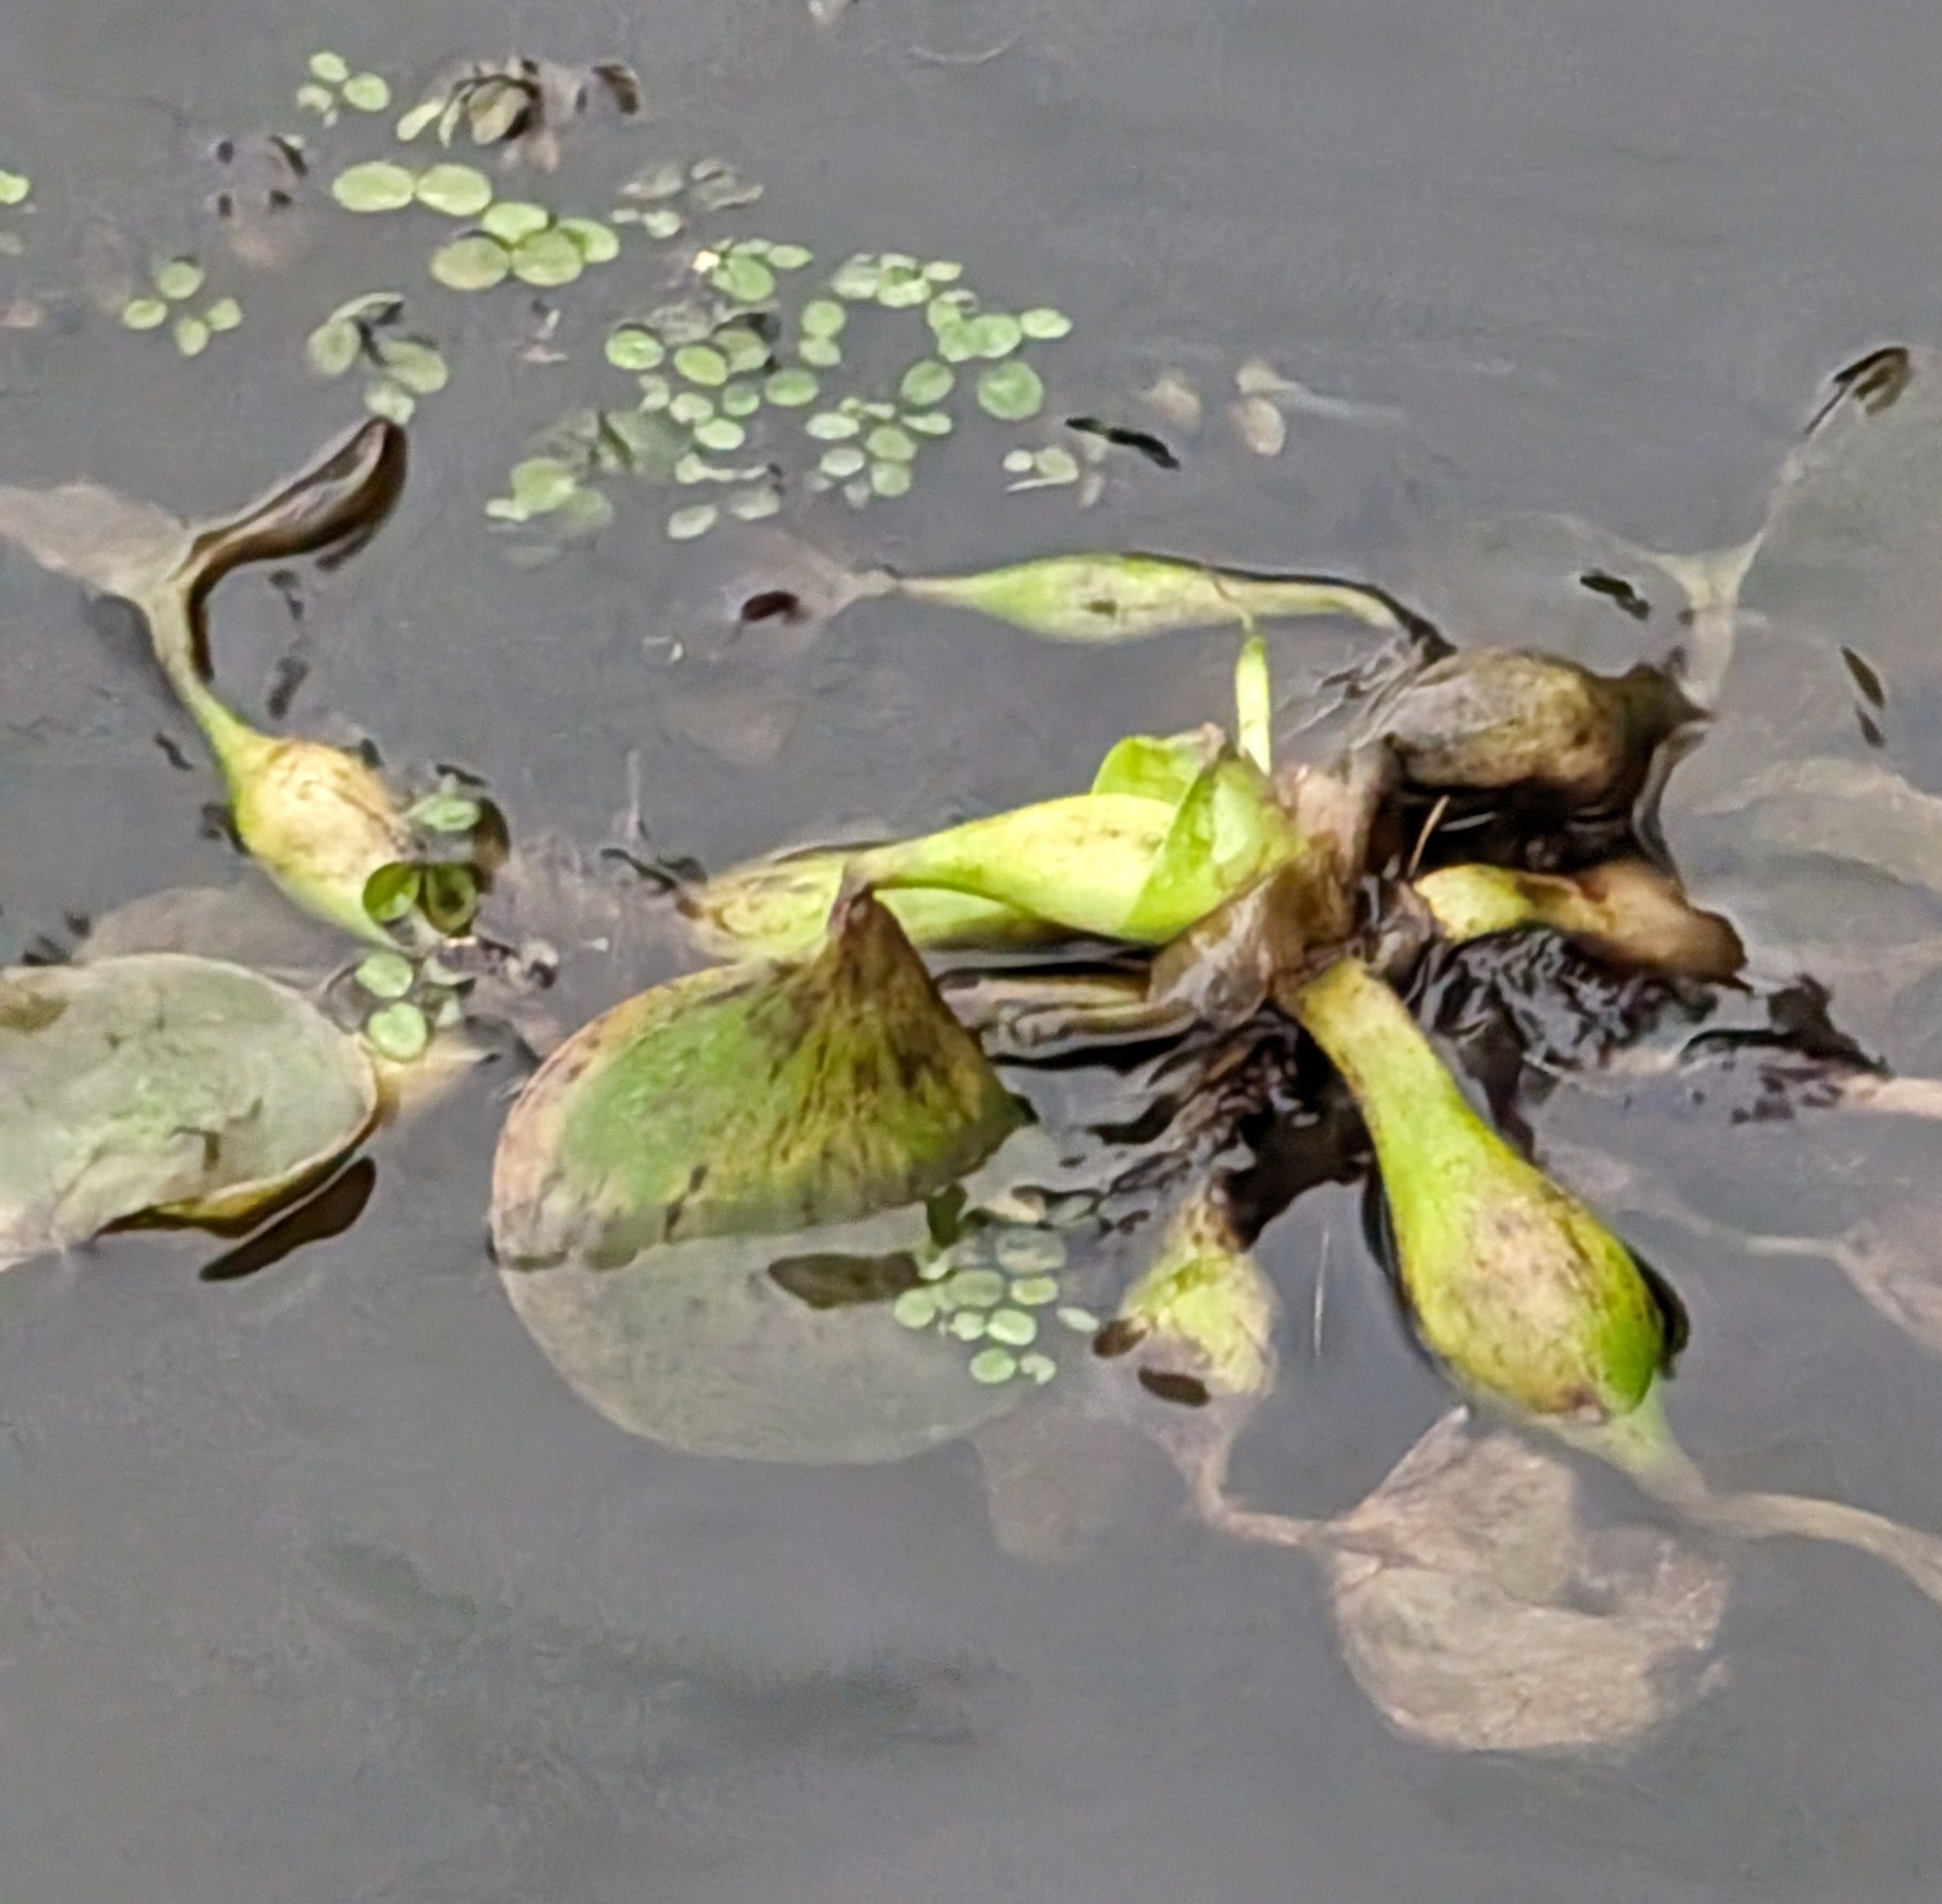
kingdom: Plantae
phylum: Tracheophyta
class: Liliopsida
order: Commelinales
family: Pontederiaceae
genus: Pontederia
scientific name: Pontederia crassipes
